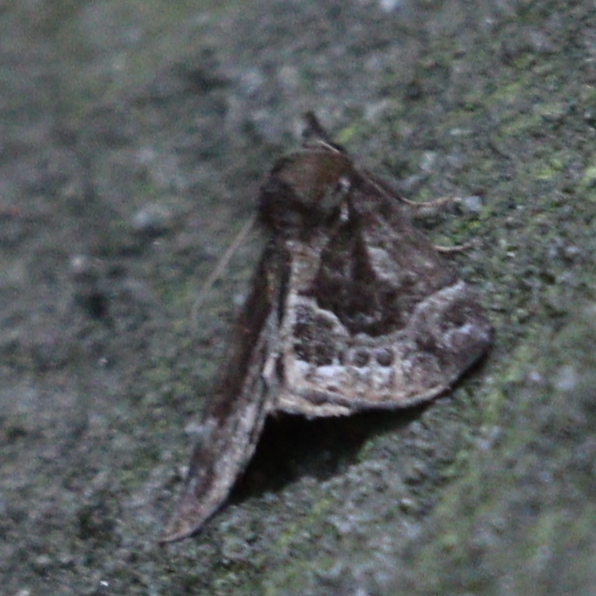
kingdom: Animalia
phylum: Arthropoda
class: Insecta
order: Lepidoptera
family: Erebidae
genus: Hypena
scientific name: Hypena crassalis
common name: Beautiful snout
